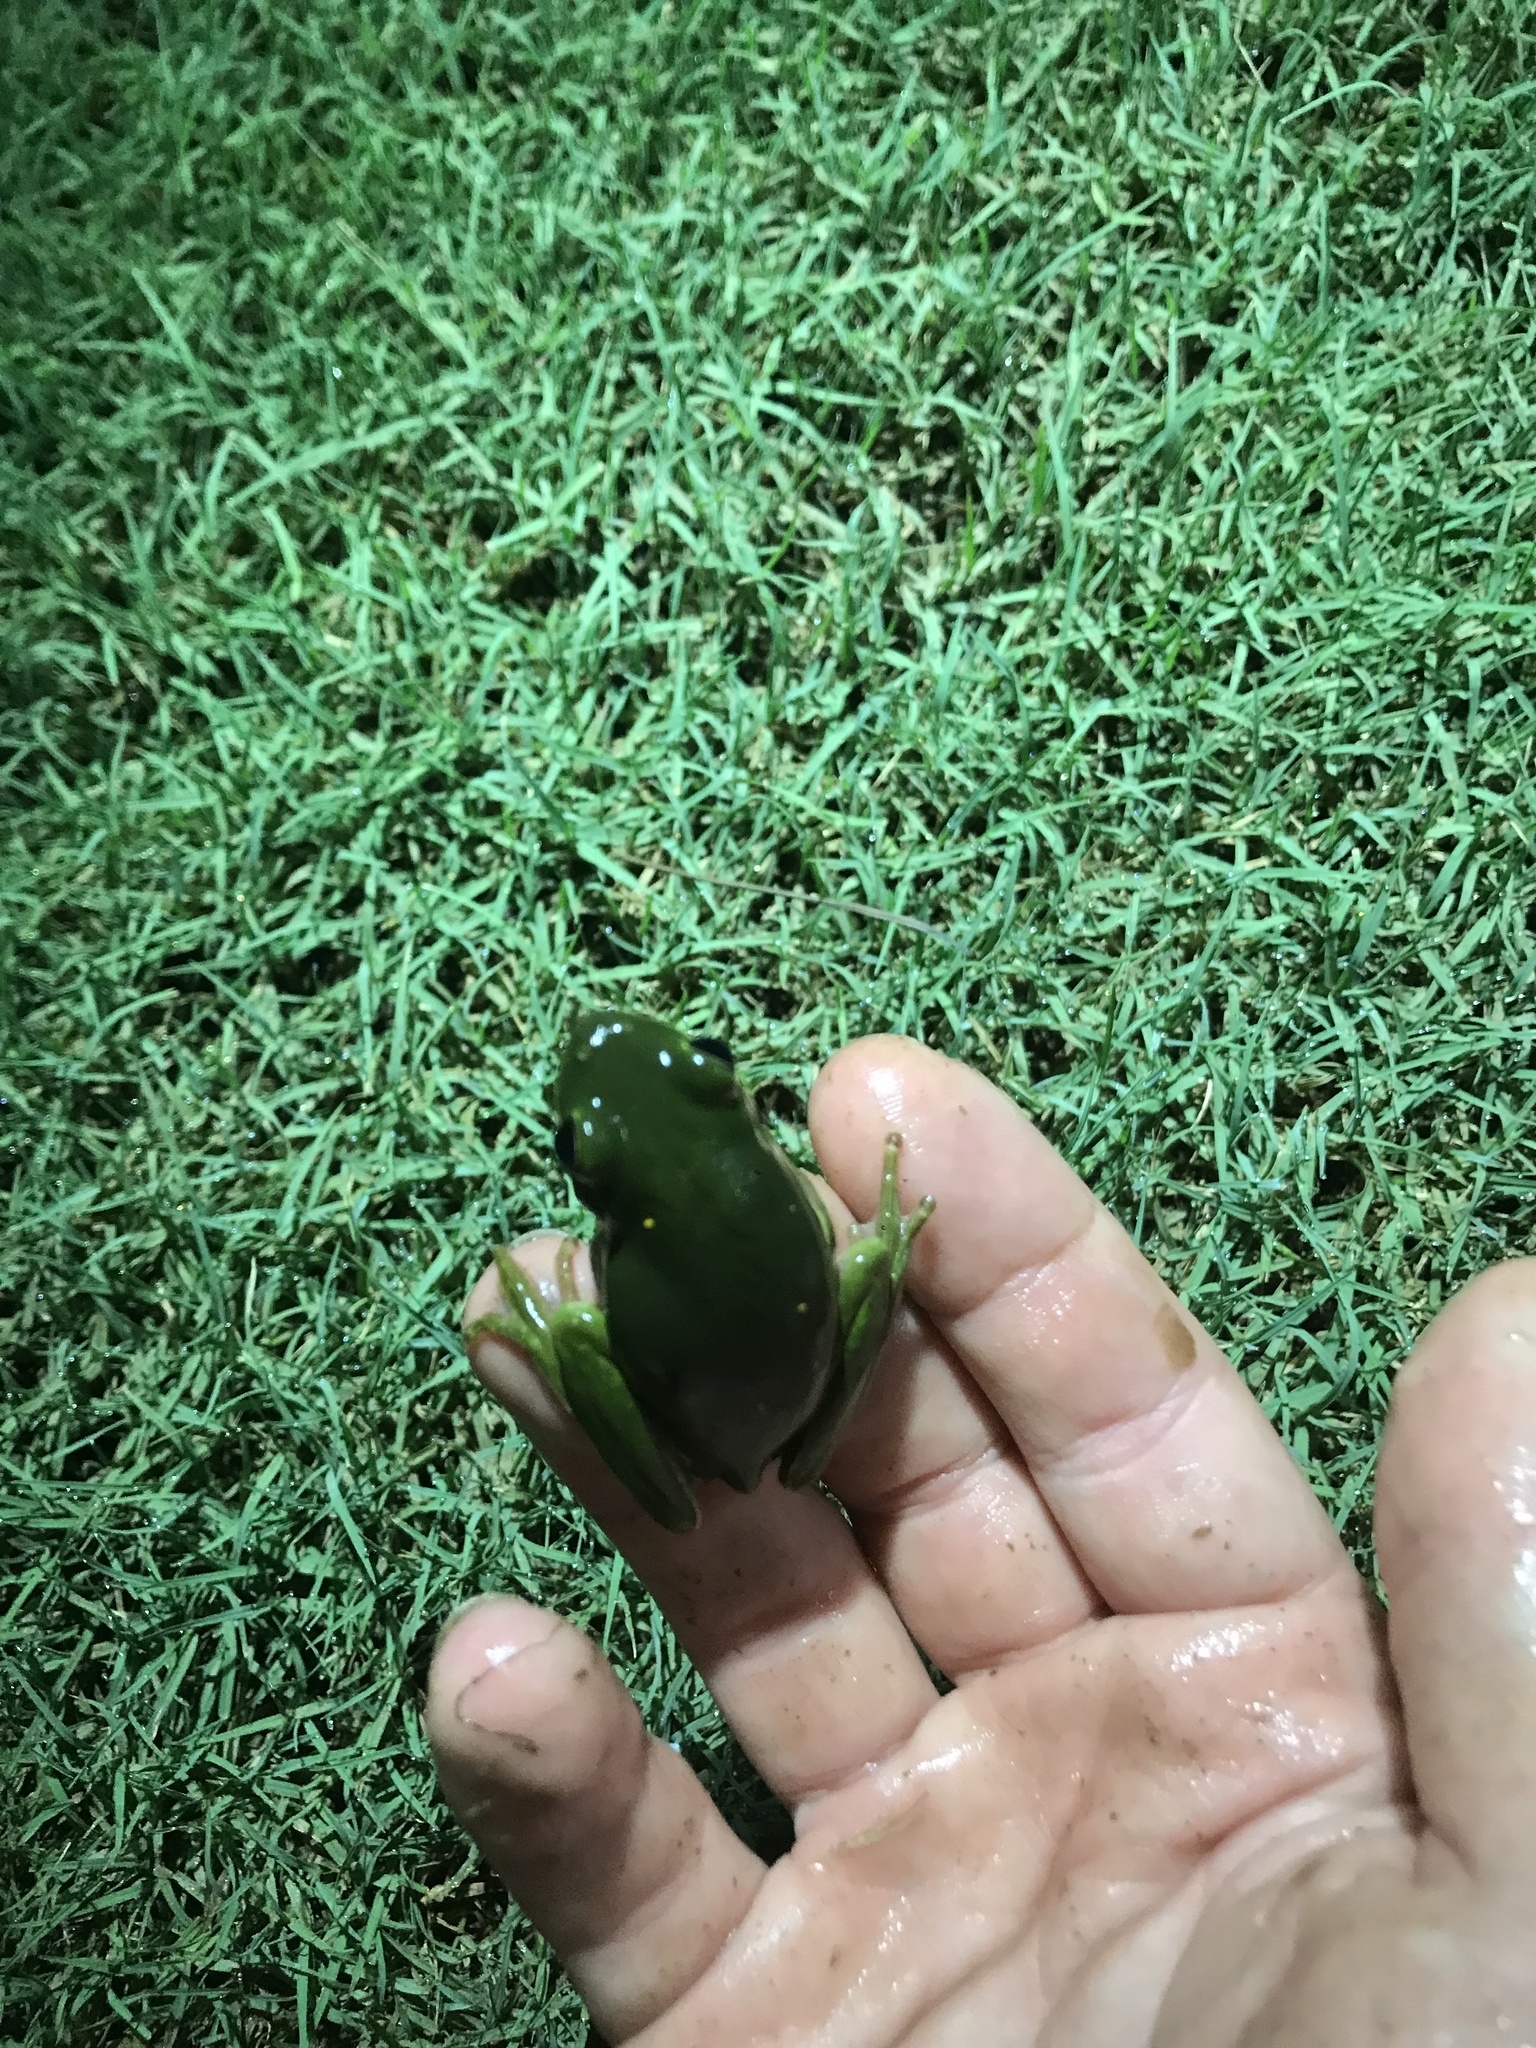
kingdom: Animalia
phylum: Chordata
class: Amphibia
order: Anura
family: Hylidae
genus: Dryophytes
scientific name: Dryophytes cinereus
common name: Green treefrog
